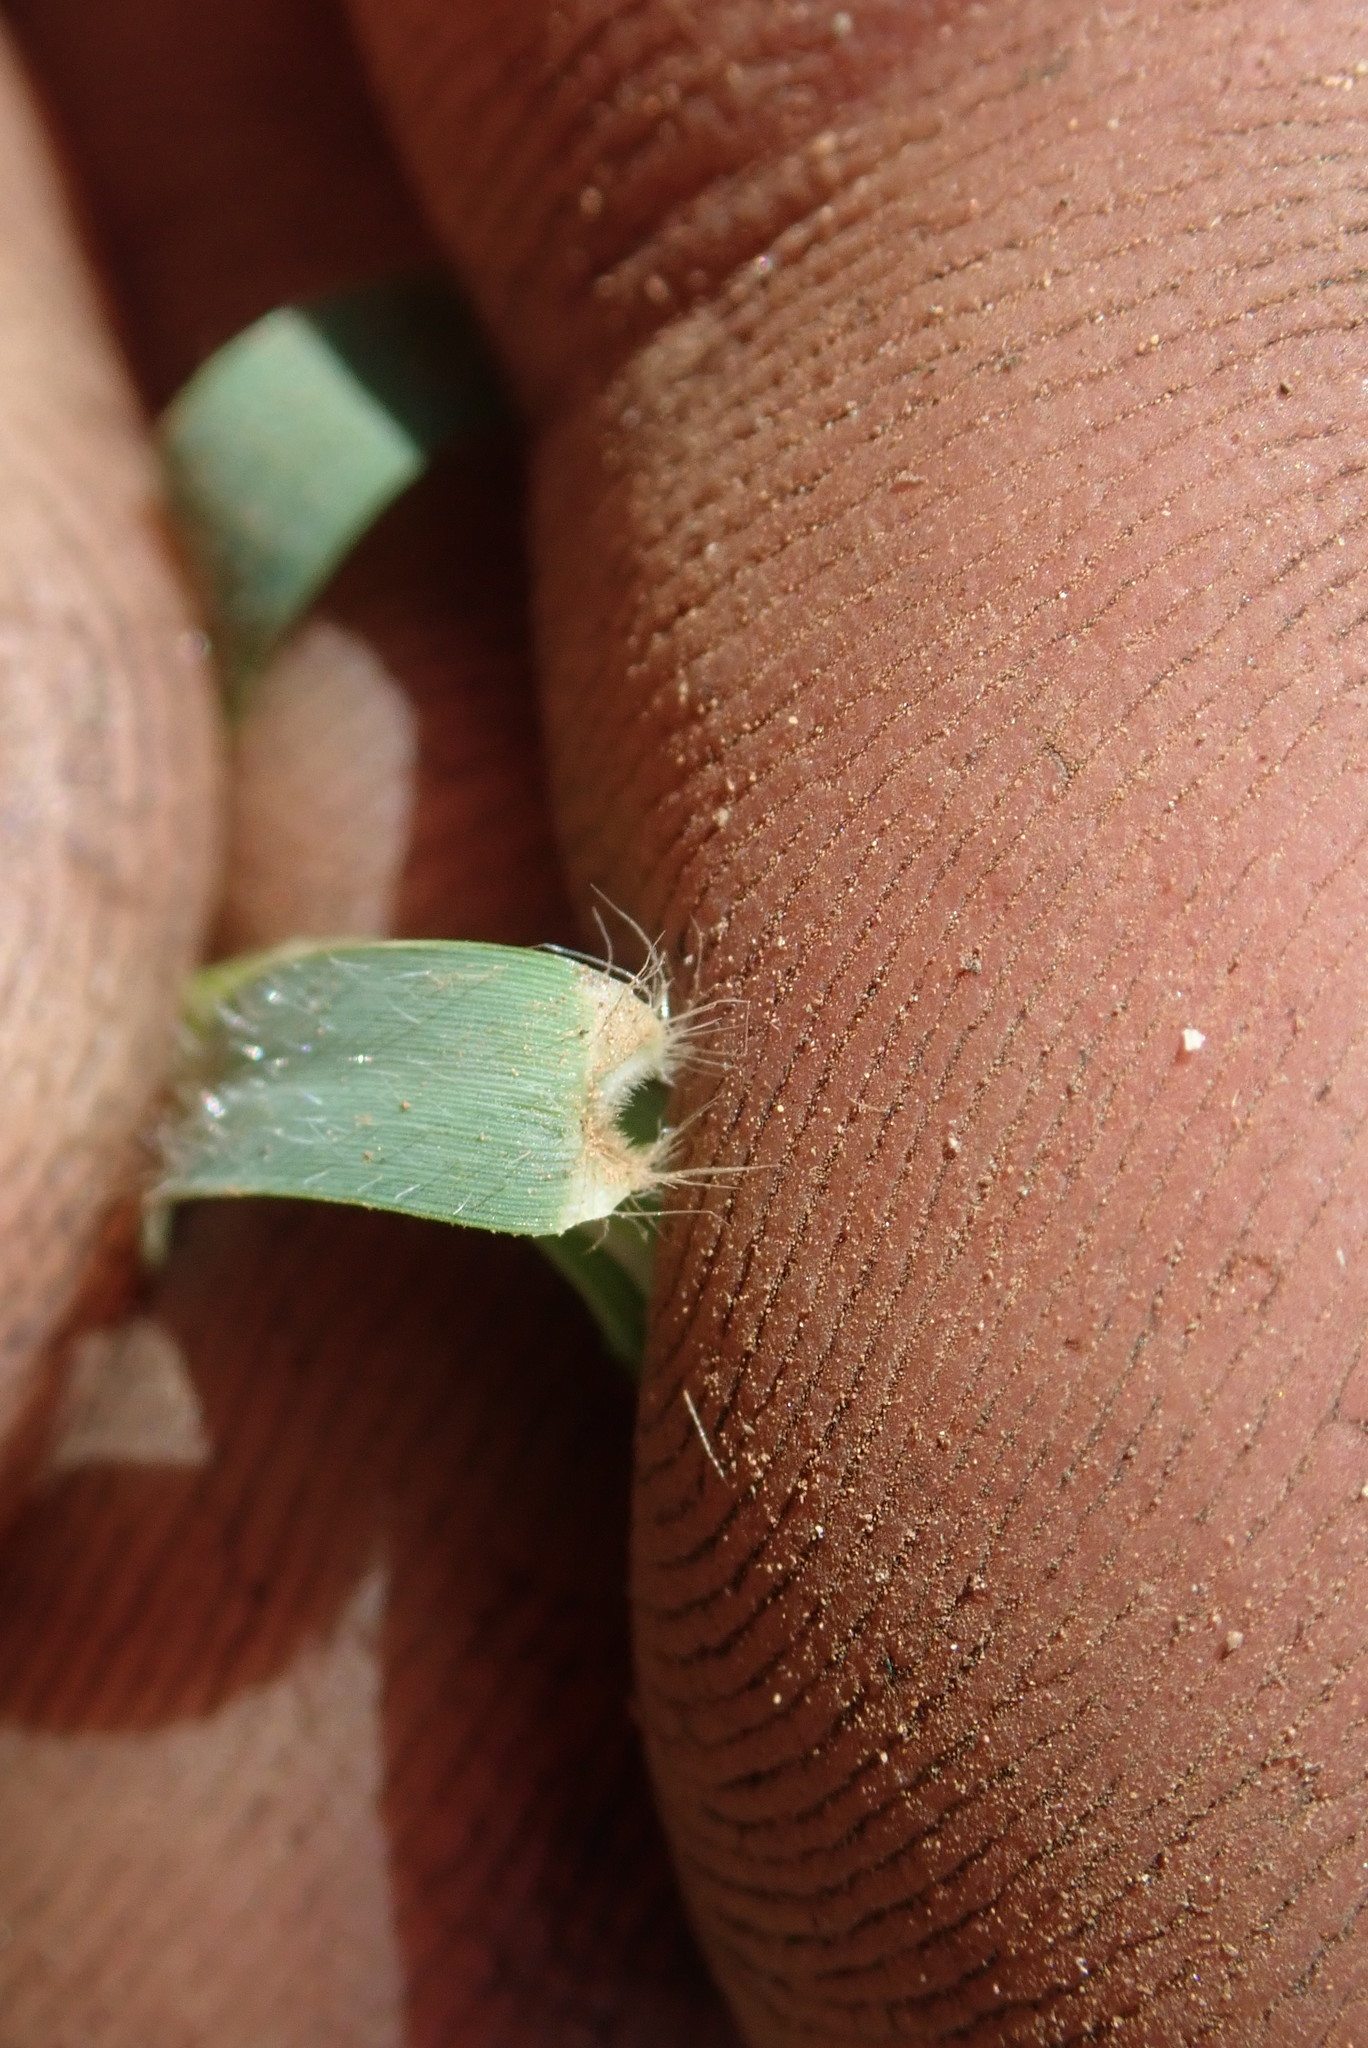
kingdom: Plantae
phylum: Tracheophyta
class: Liliopsida
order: Poales
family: Poaceae
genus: Cynodon
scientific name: Cynodon dactylon
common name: Bermuda grass
